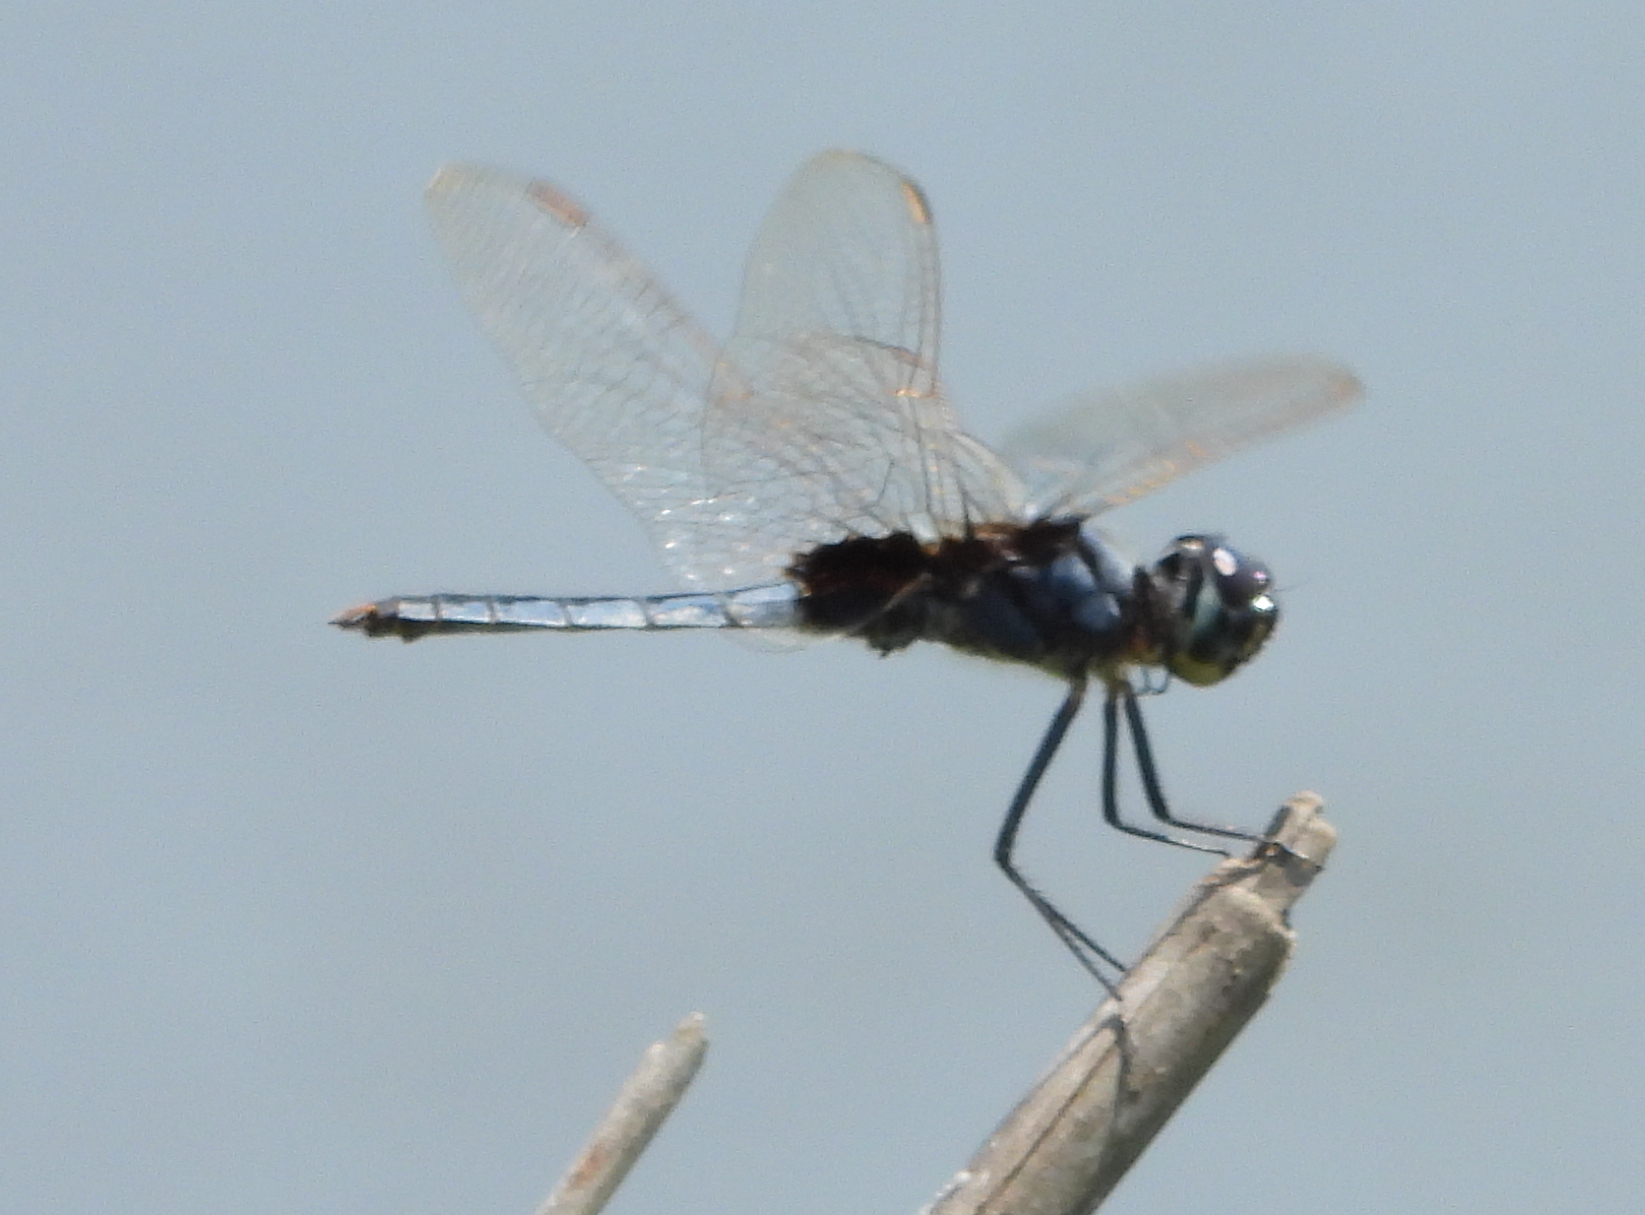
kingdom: Animalia
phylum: Arthropoda
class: Insecta
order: Odonata
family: Libellulidae
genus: Urothemis
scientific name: Urothemis edwardsii
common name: Blue basker
